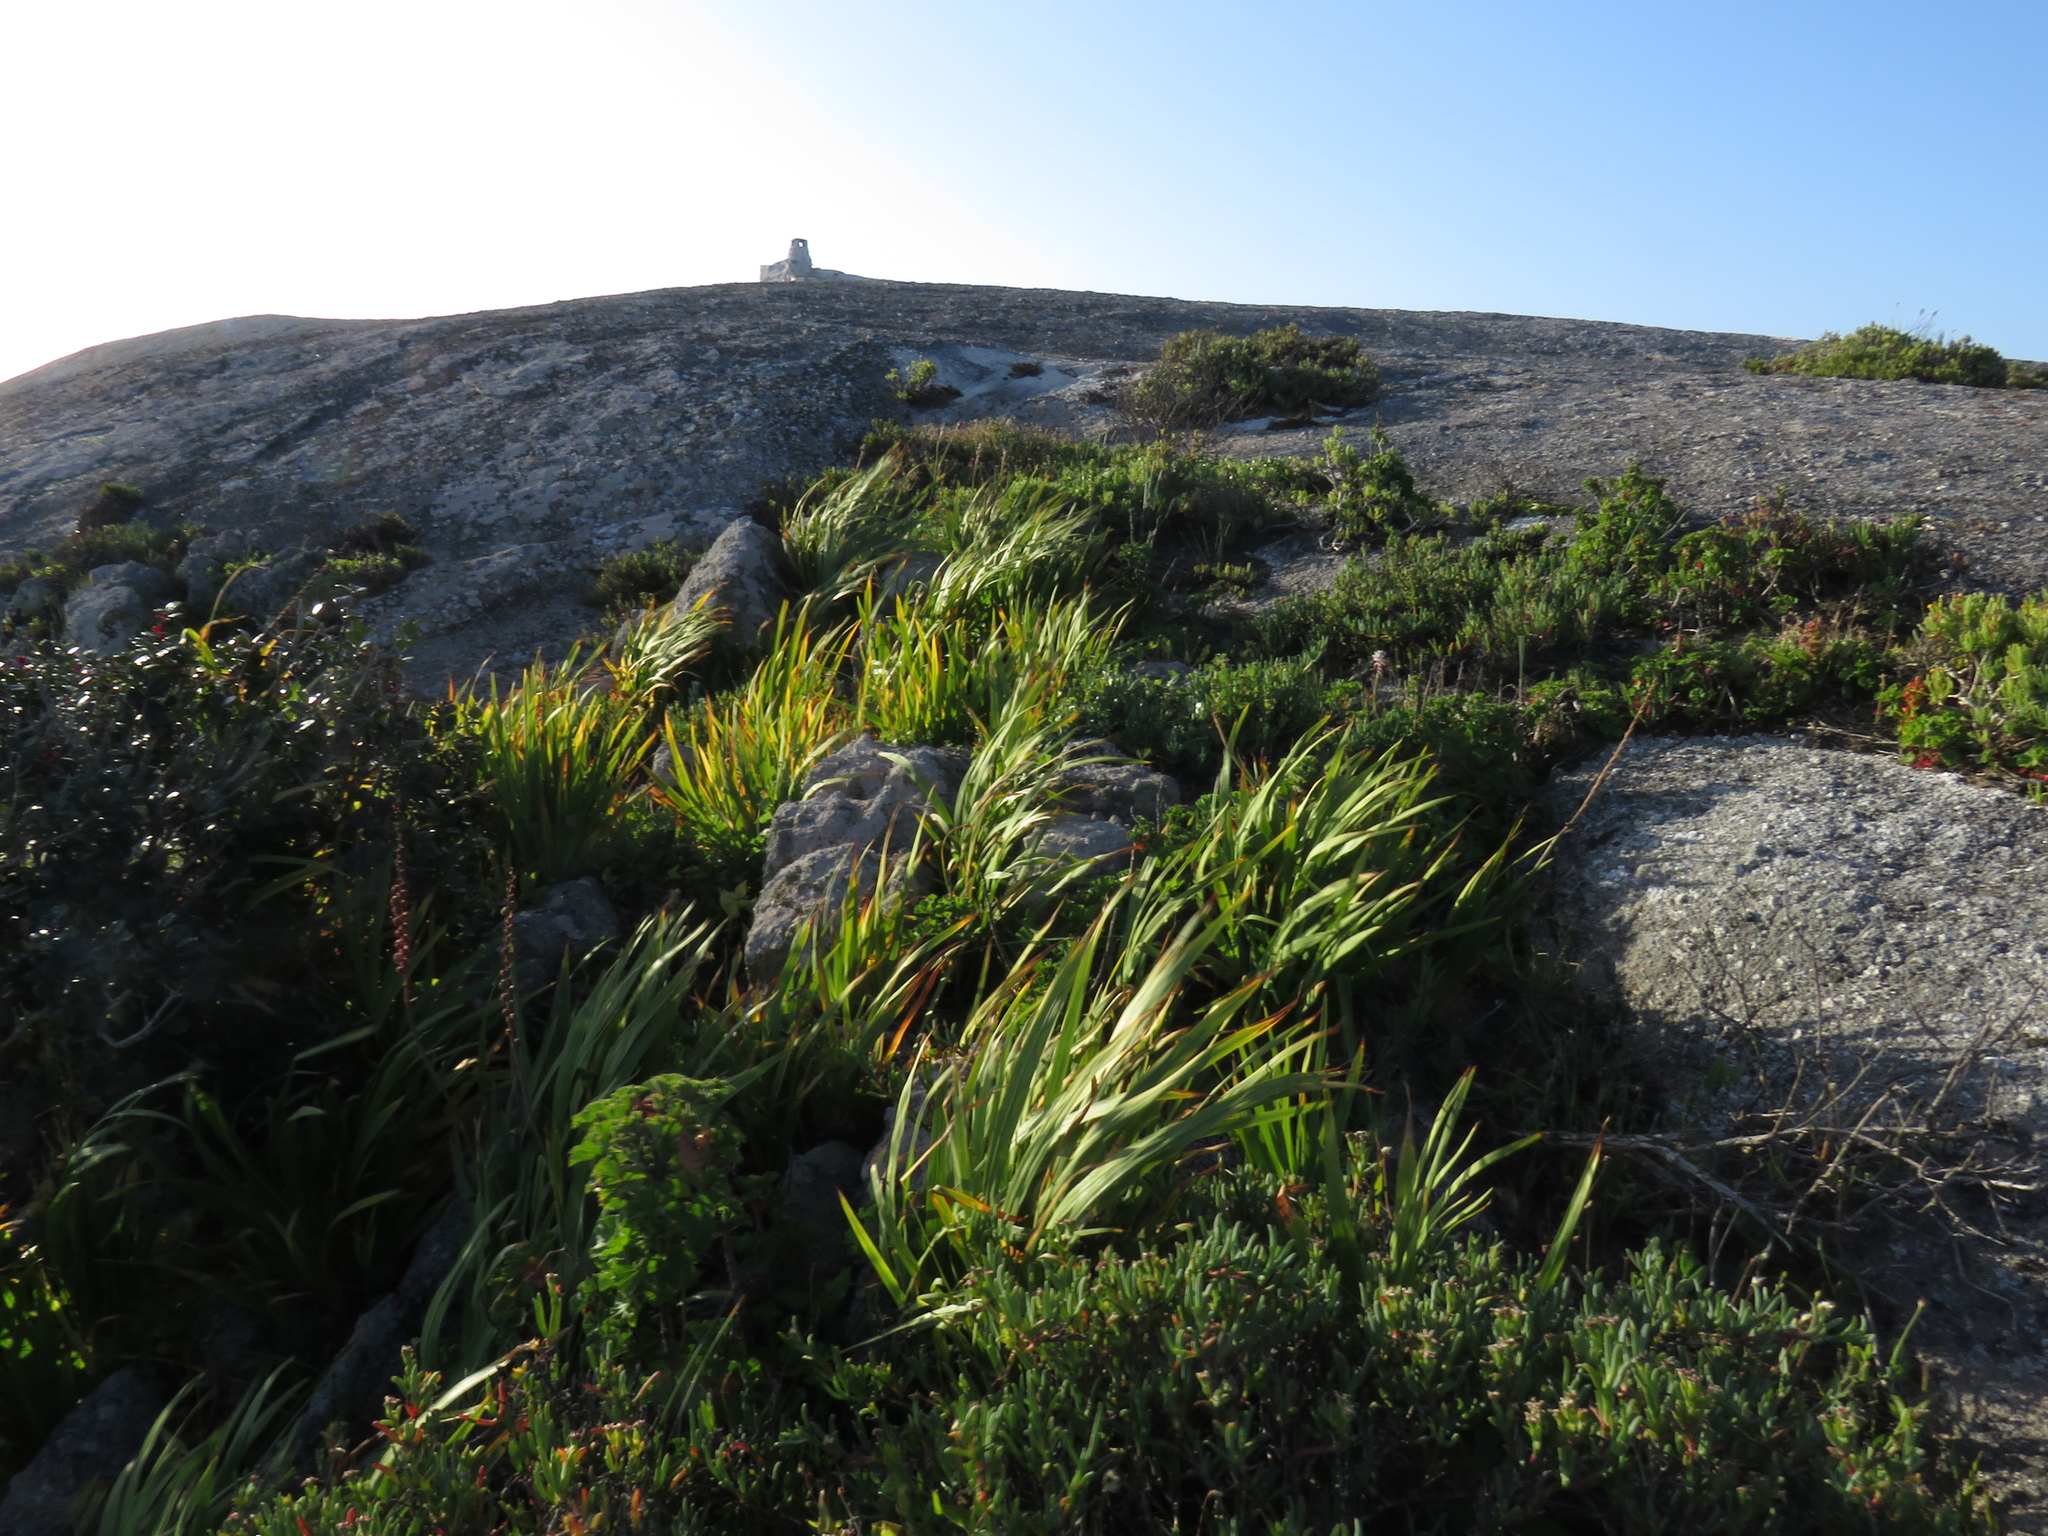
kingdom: Plantae
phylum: Tracheophyta
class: Liliopsida
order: Asparagales
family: Iridaceae
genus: Chasmanthe
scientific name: Chasmanthe floribunda
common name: African cornflag
